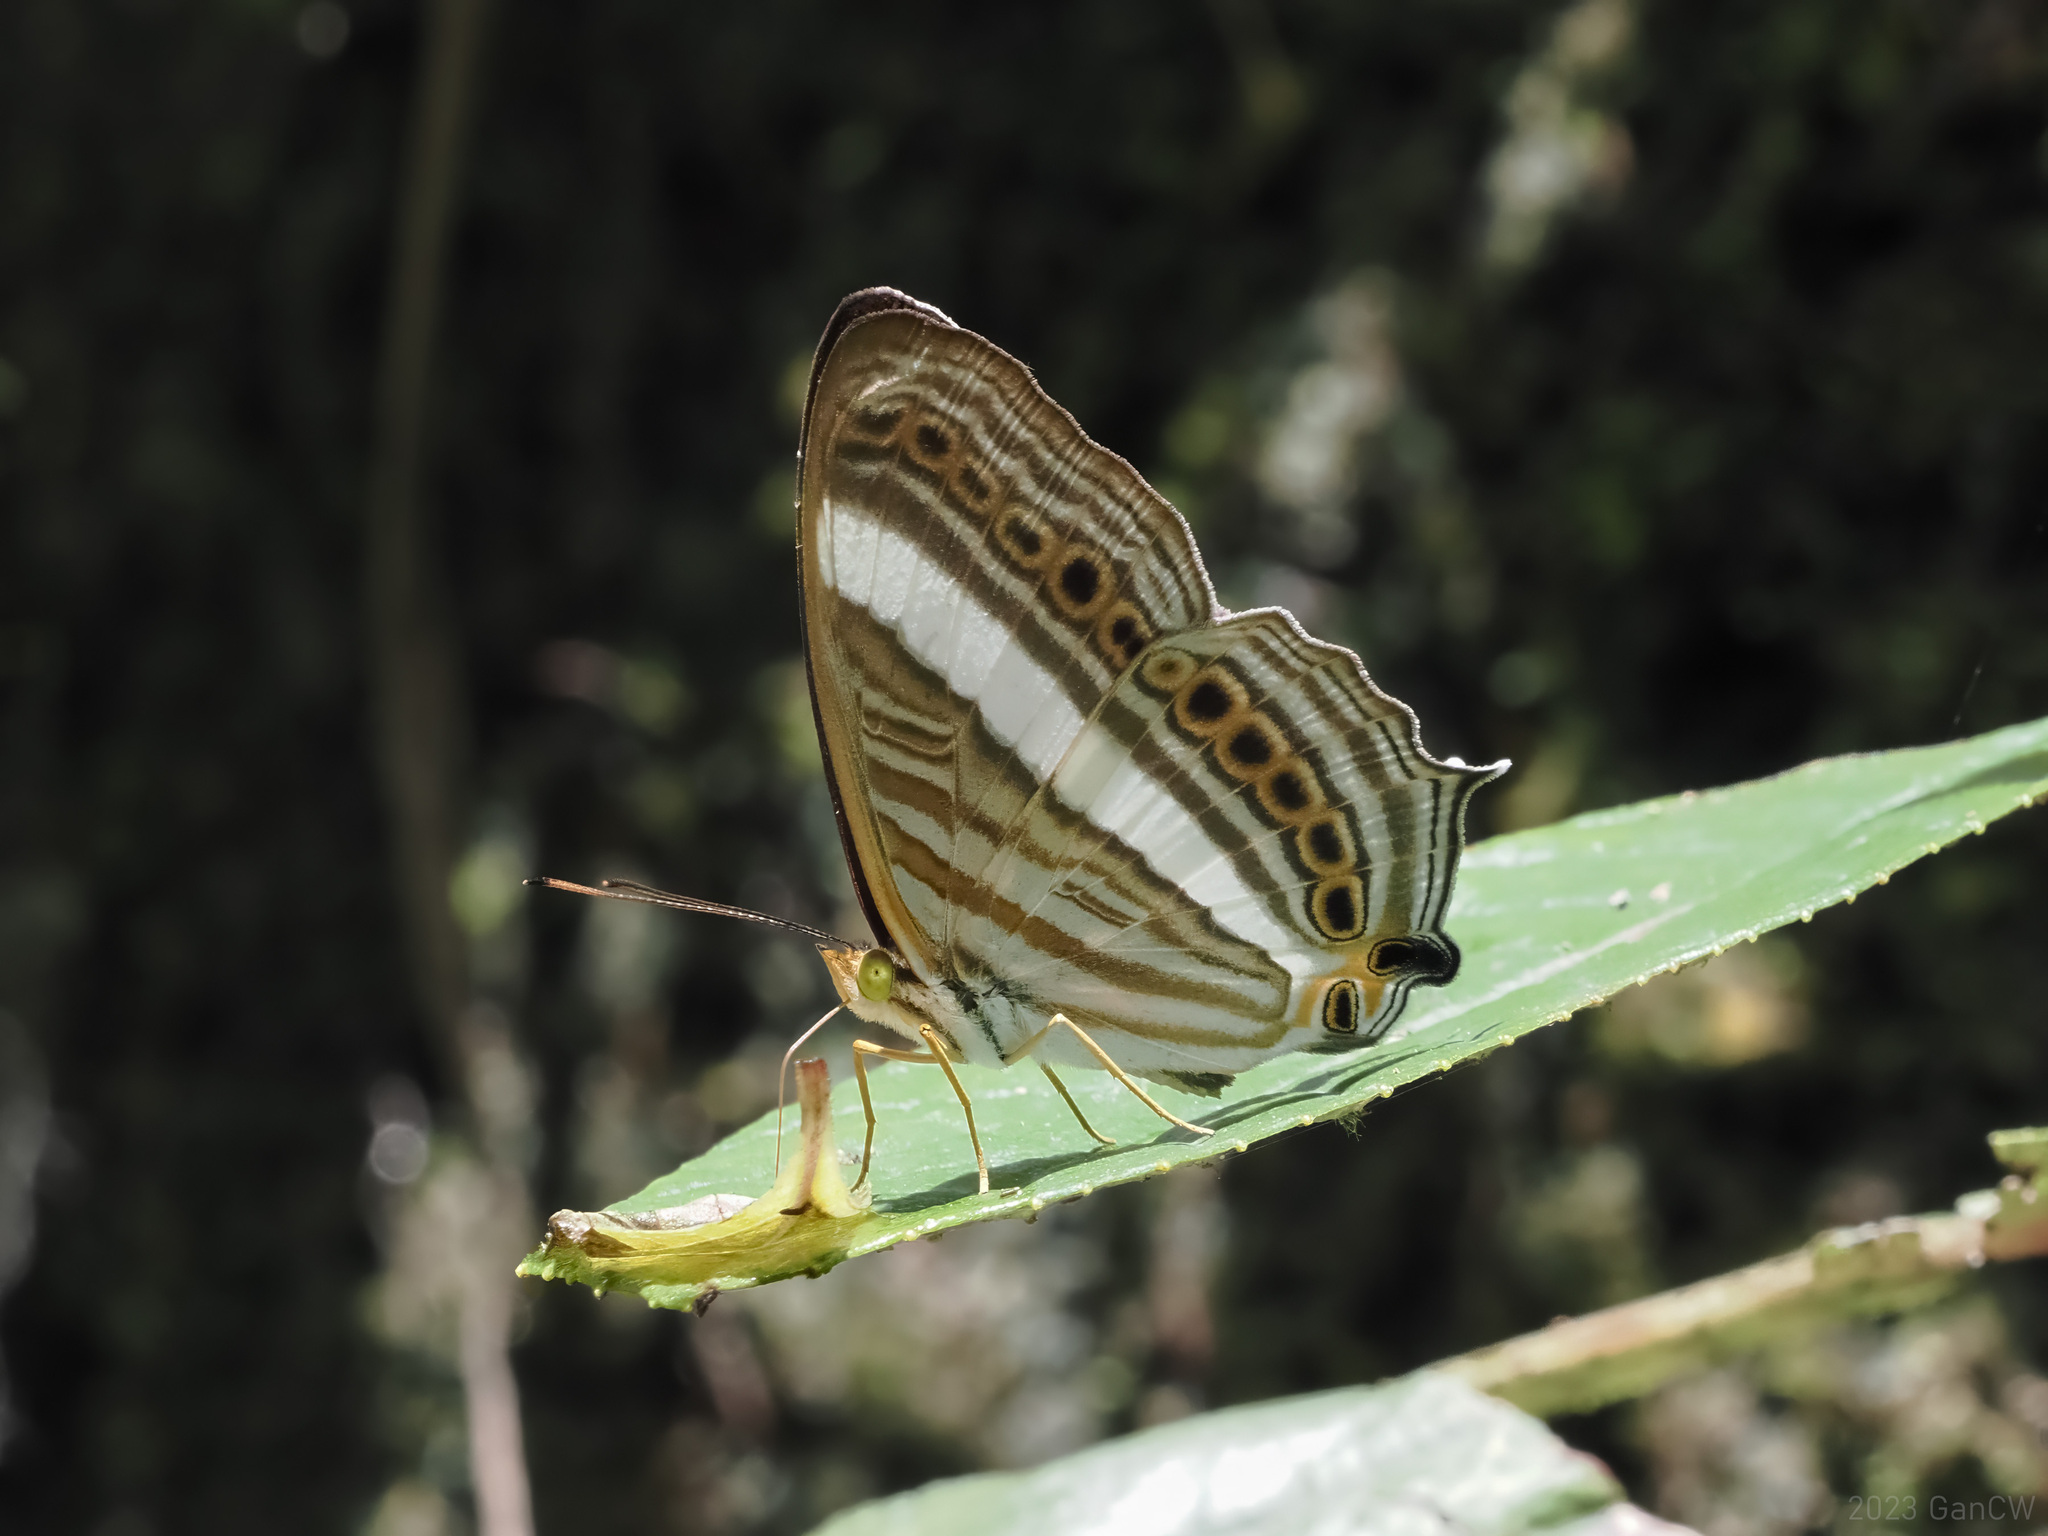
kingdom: Animalia
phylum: Arthropoda
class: Insecta
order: Lepidoptera
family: Nymphalidae
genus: Cyrestis
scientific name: Cyrestis strigata
